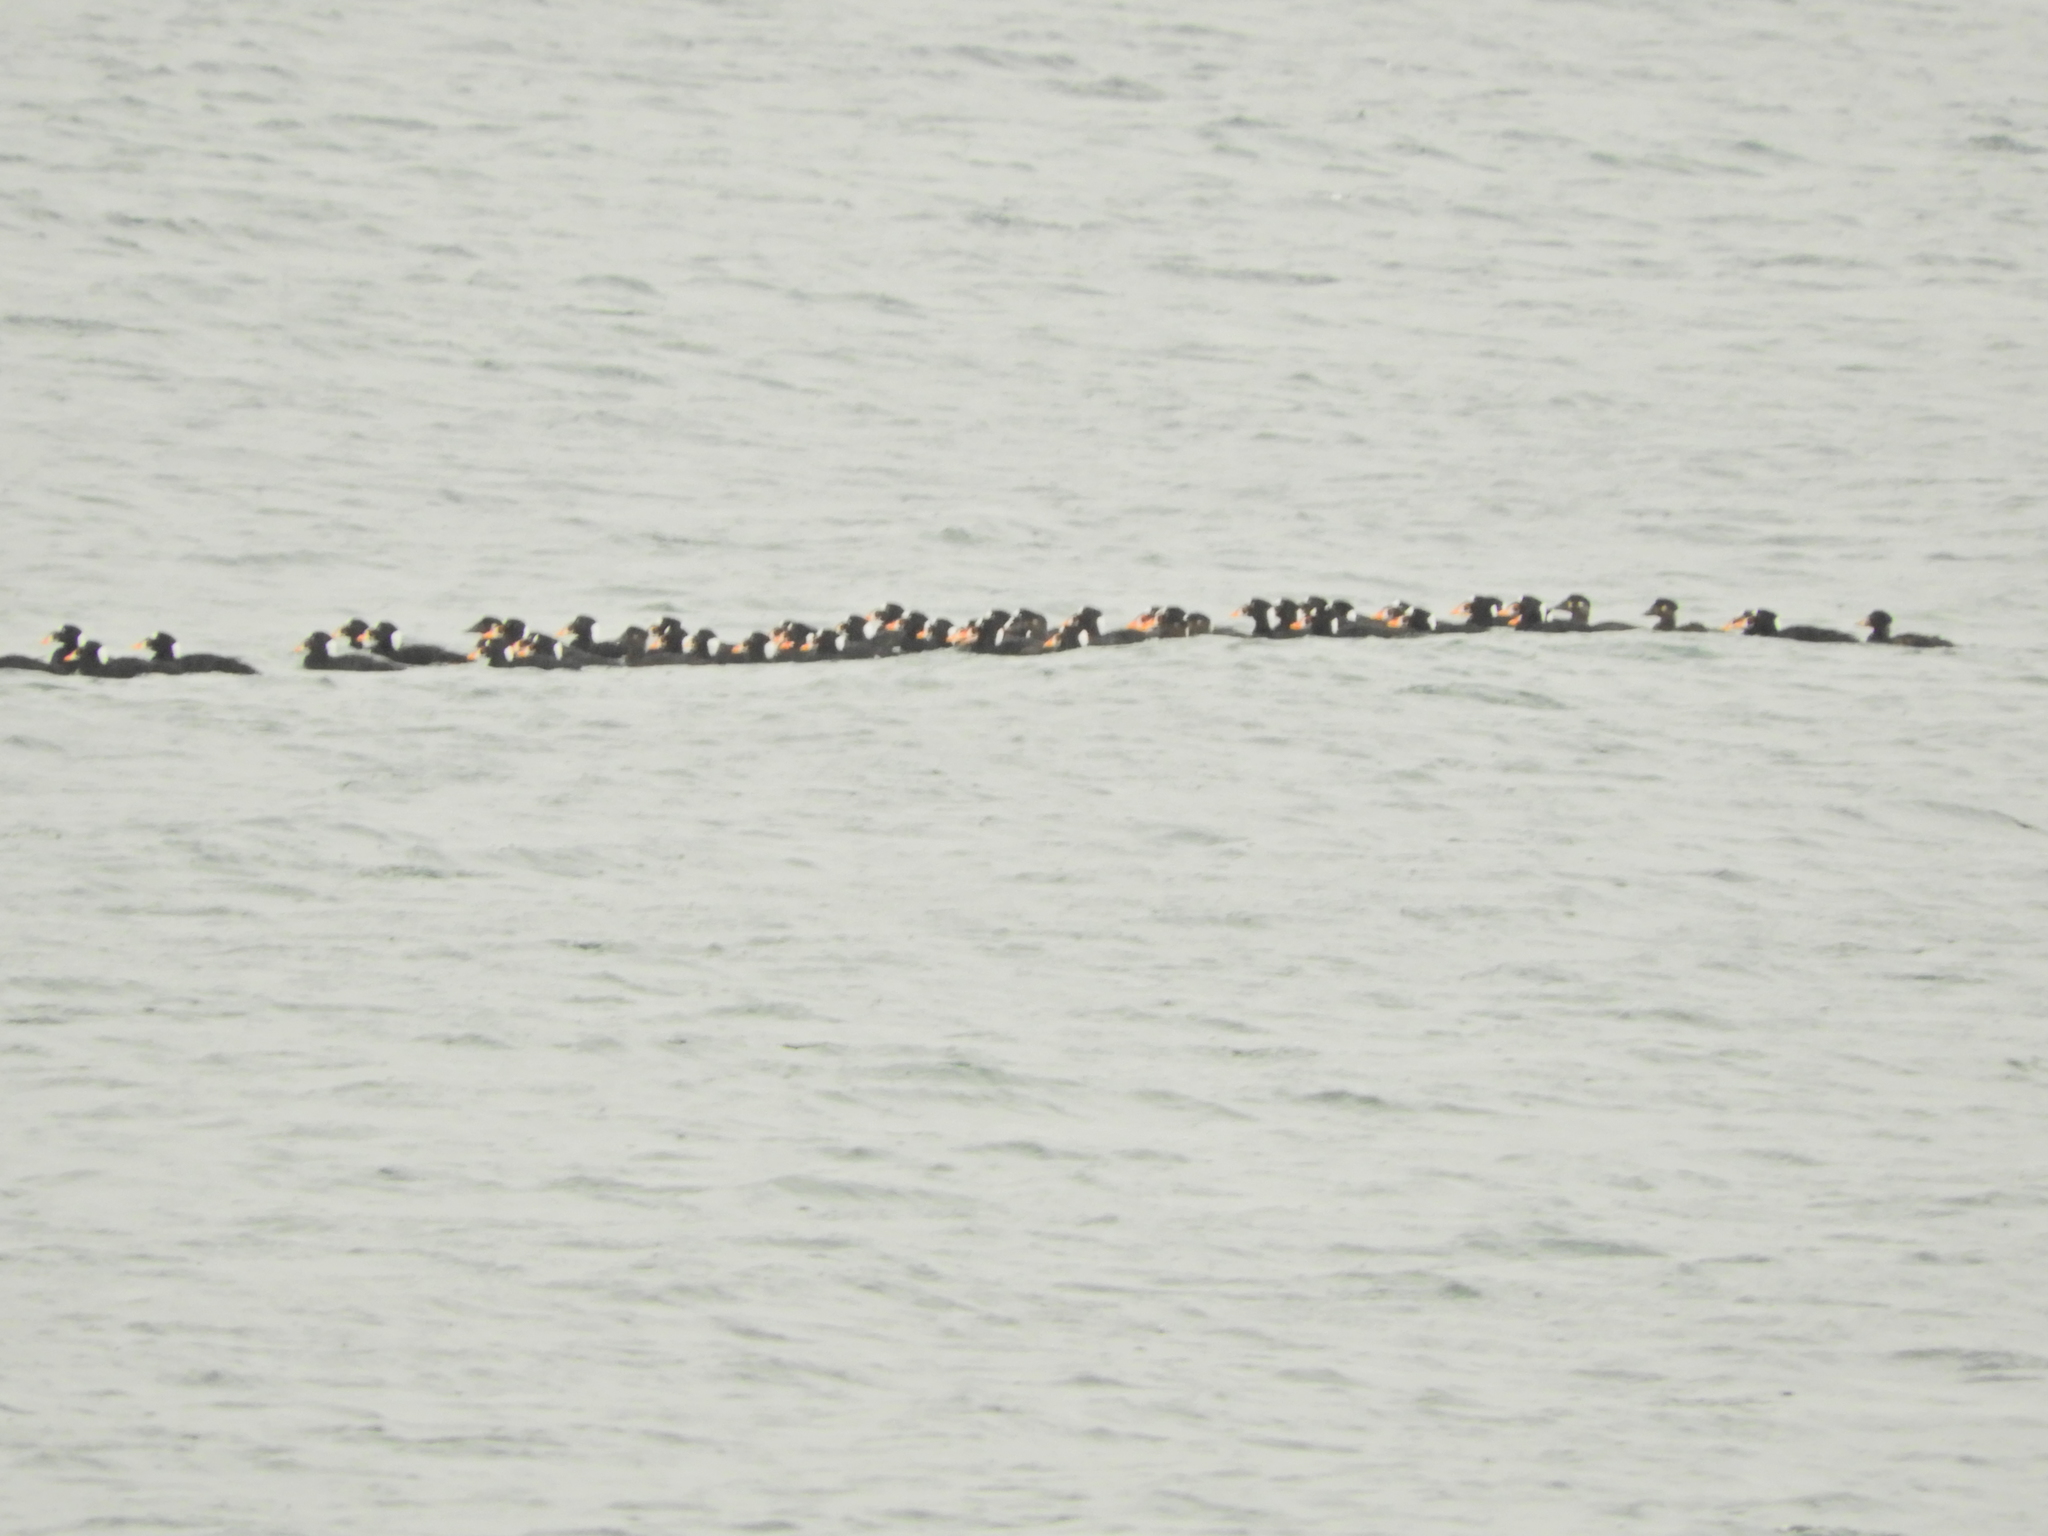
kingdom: Animalia
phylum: Chordata
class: Aves
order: Anseriformes
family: Anatidae
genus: Melanitta
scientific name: Melanitta perspicillata
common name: Surf scoter
